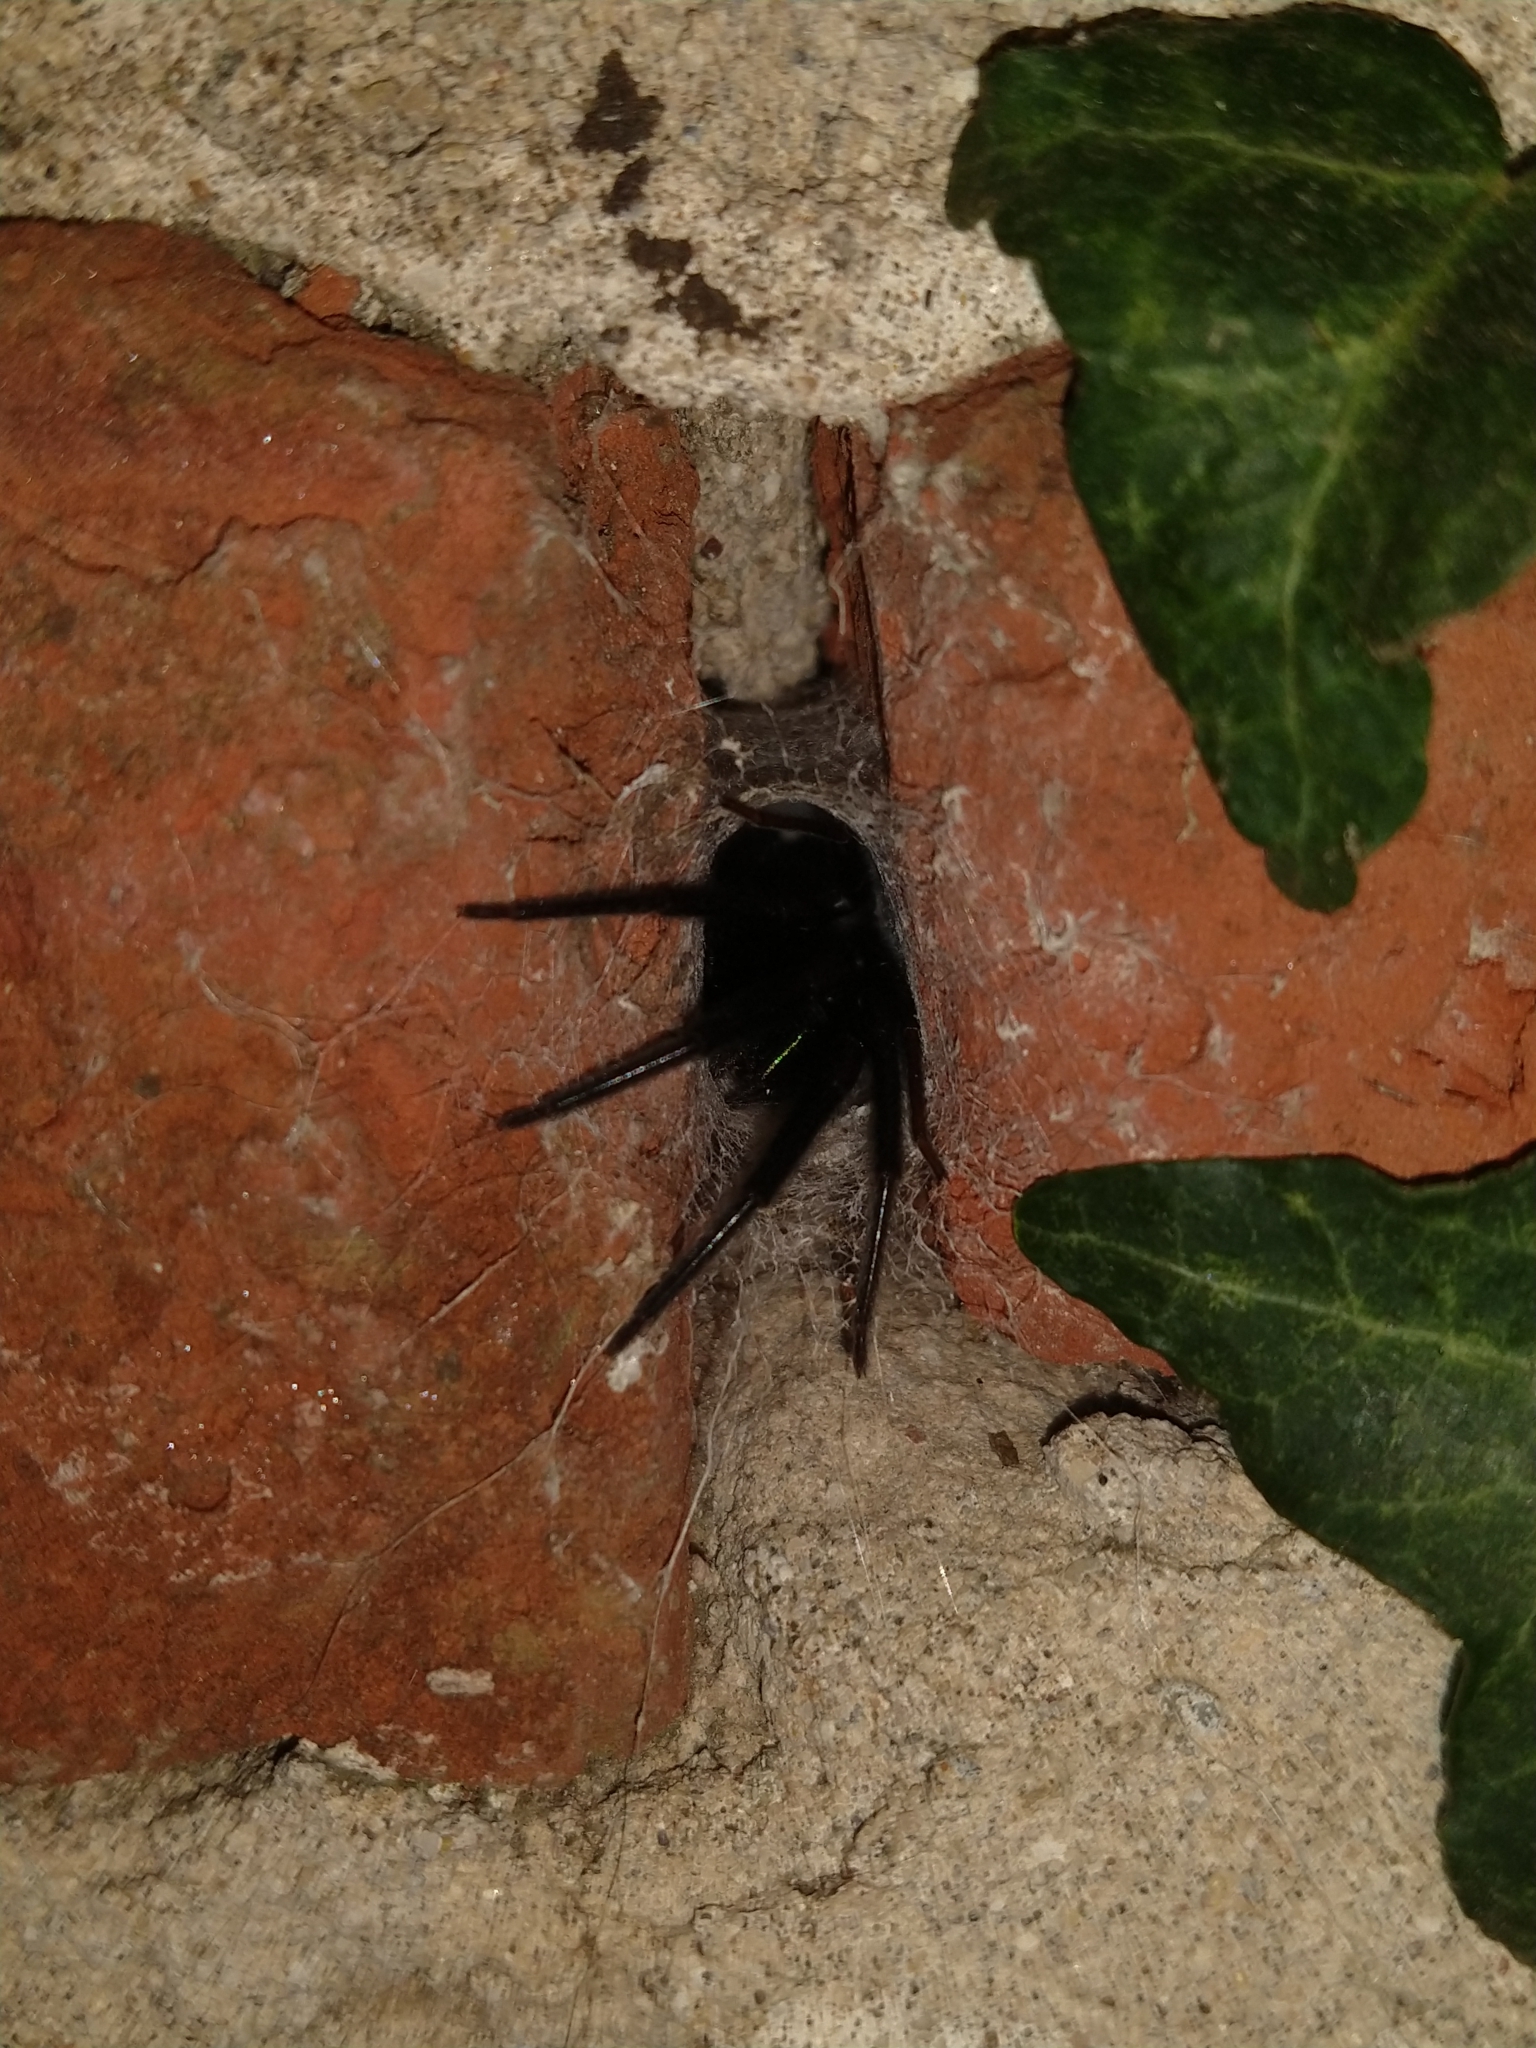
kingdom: Animalia
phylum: Arthropoda
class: Arachnida
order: Araneae
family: Segestriidae
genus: Segestria
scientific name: Segestria florentina
